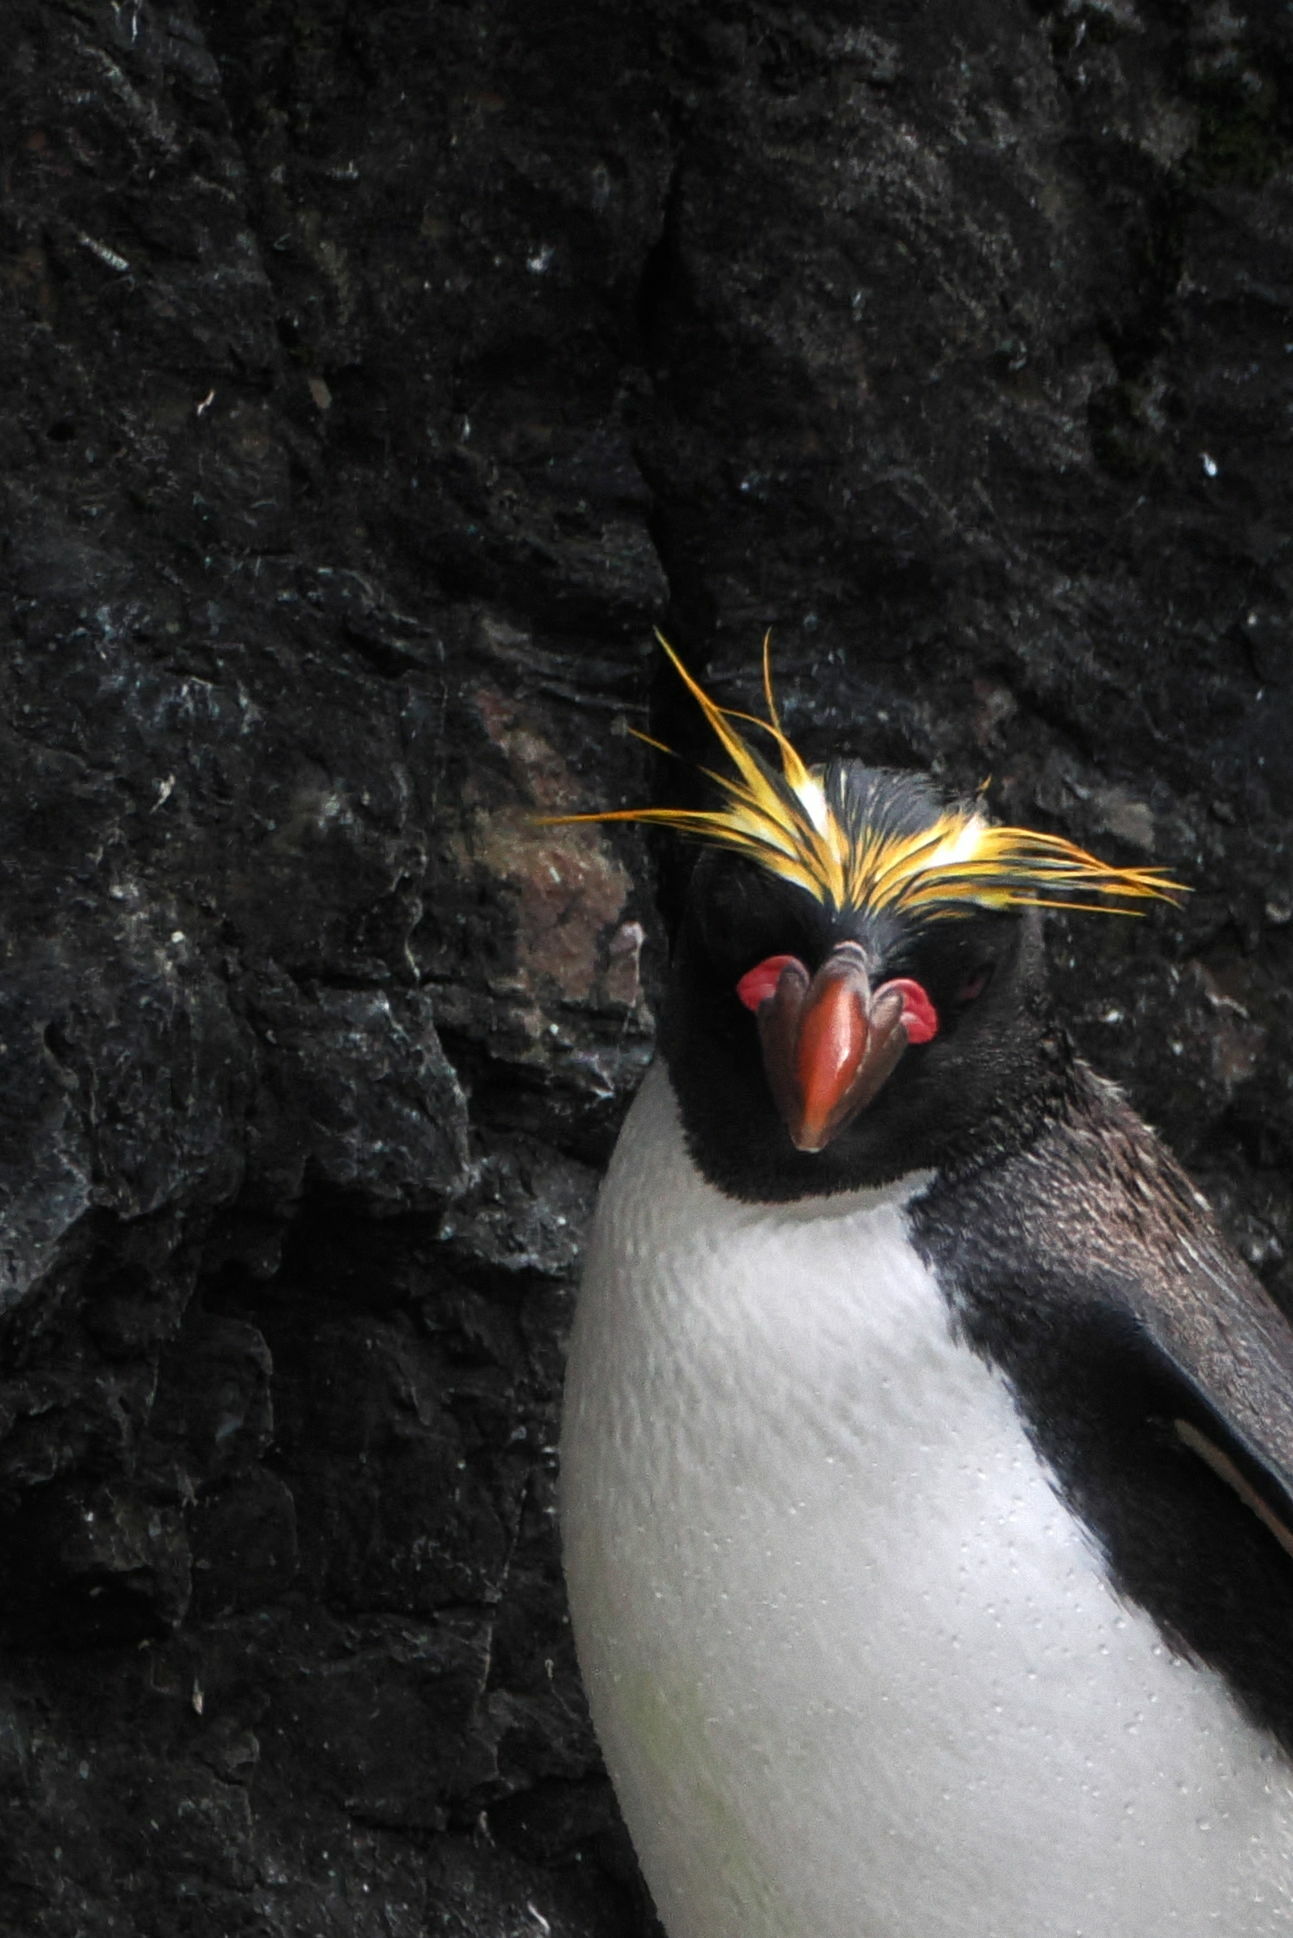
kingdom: Animalia
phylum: Chordata
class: Aves
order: Sphenisciformes
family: Spheniscidae
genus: Eudyptes
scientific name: Eudyptes chrysolophus
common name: Macaroni penguin
